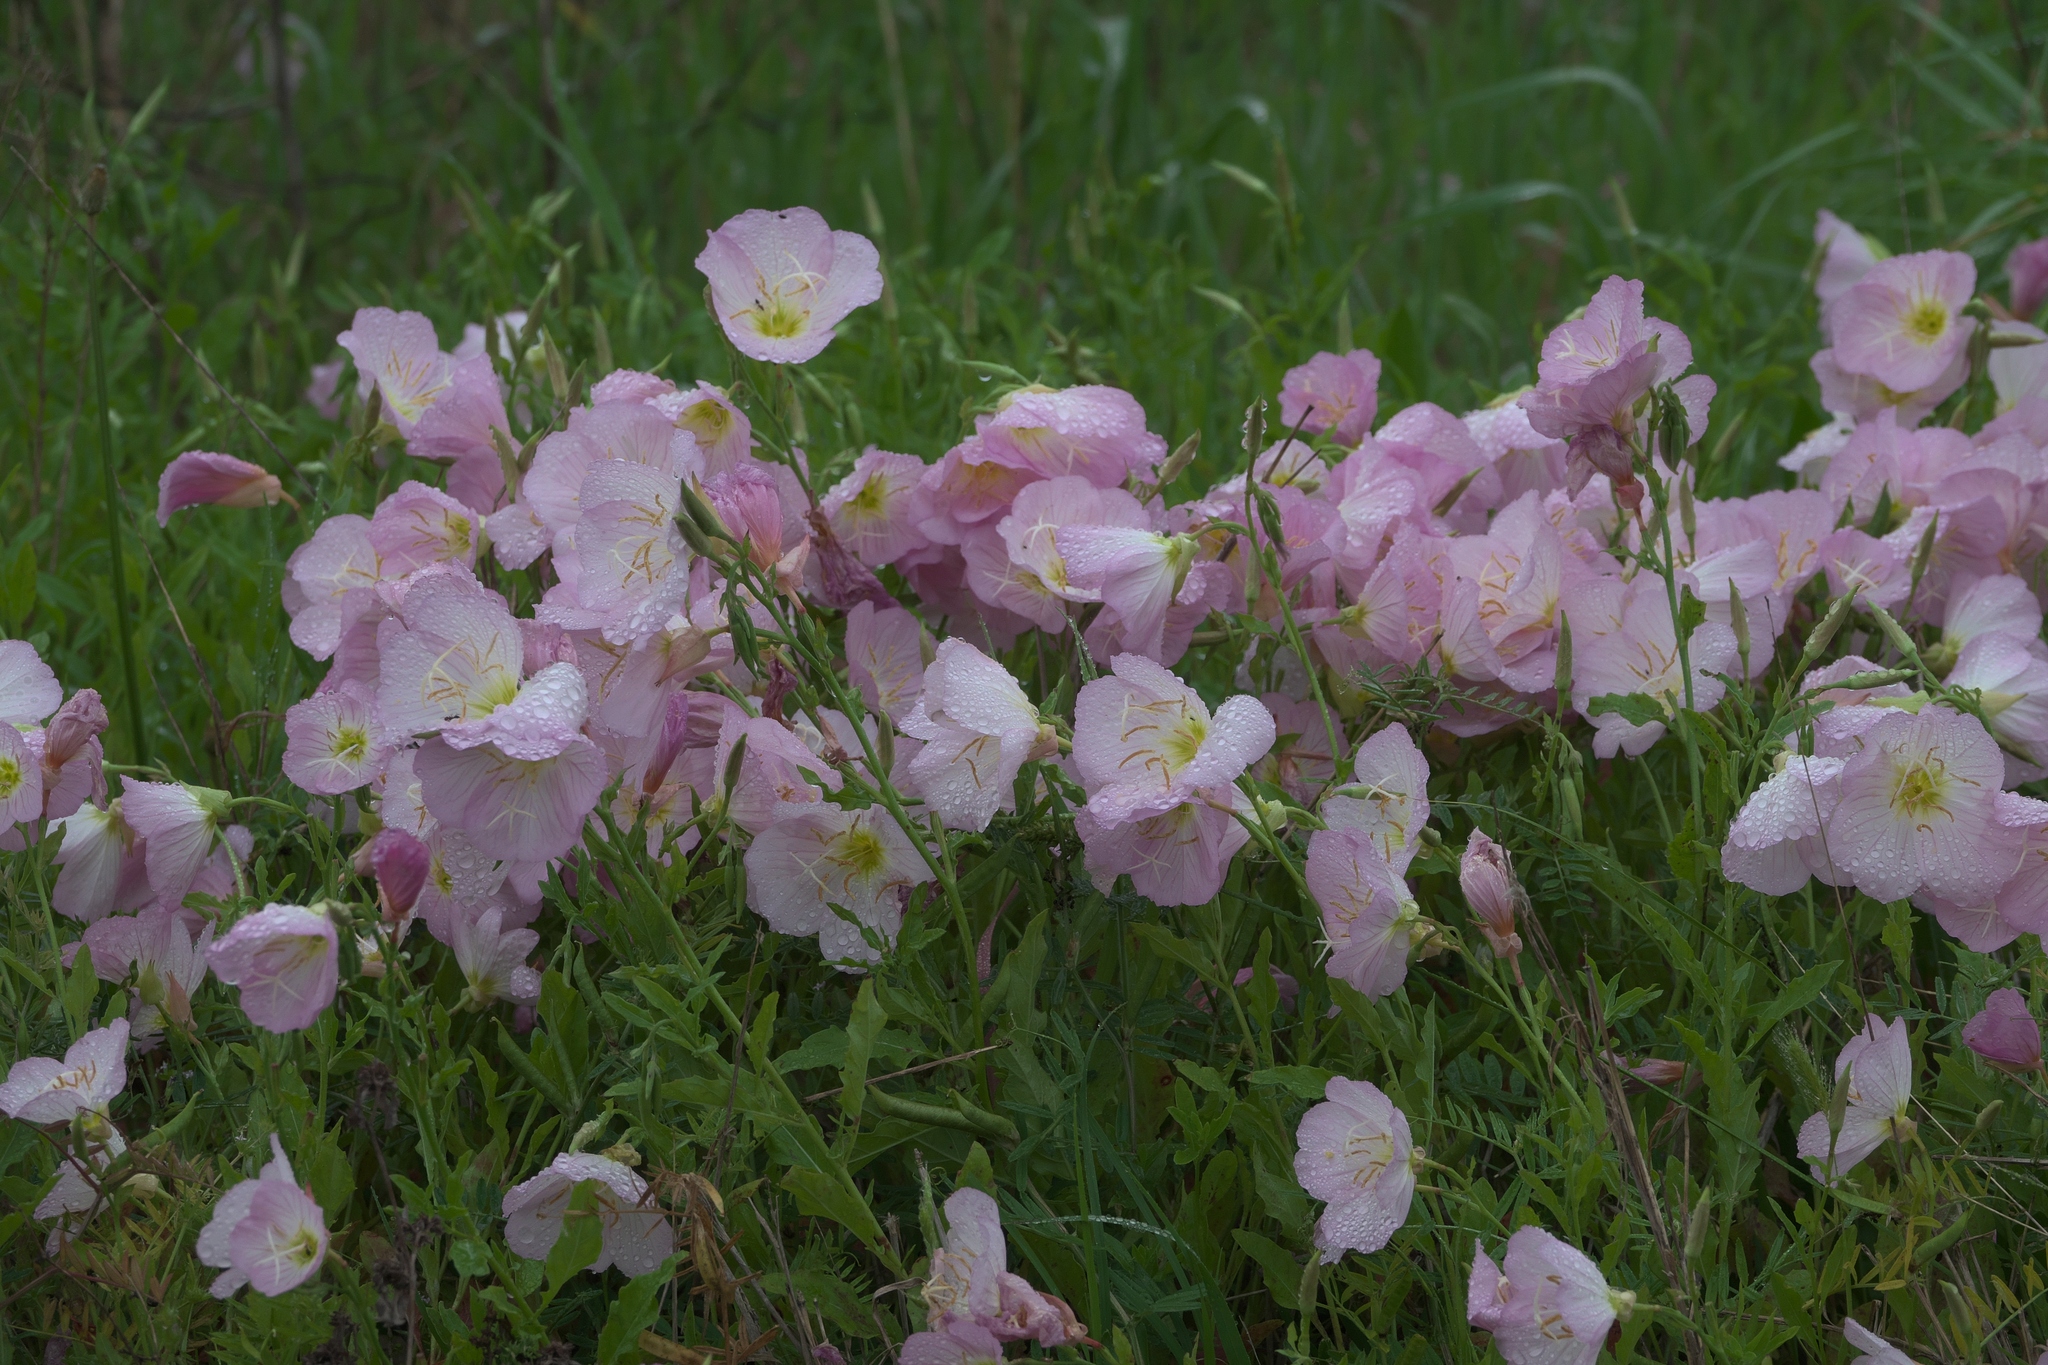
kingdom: Plantae
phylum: Tracheophyta
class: Magnoliopsida
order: Myrtales
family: Onagraceae
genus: Oenothera
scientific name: Oenothera speciosa
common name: White evening-primrose
